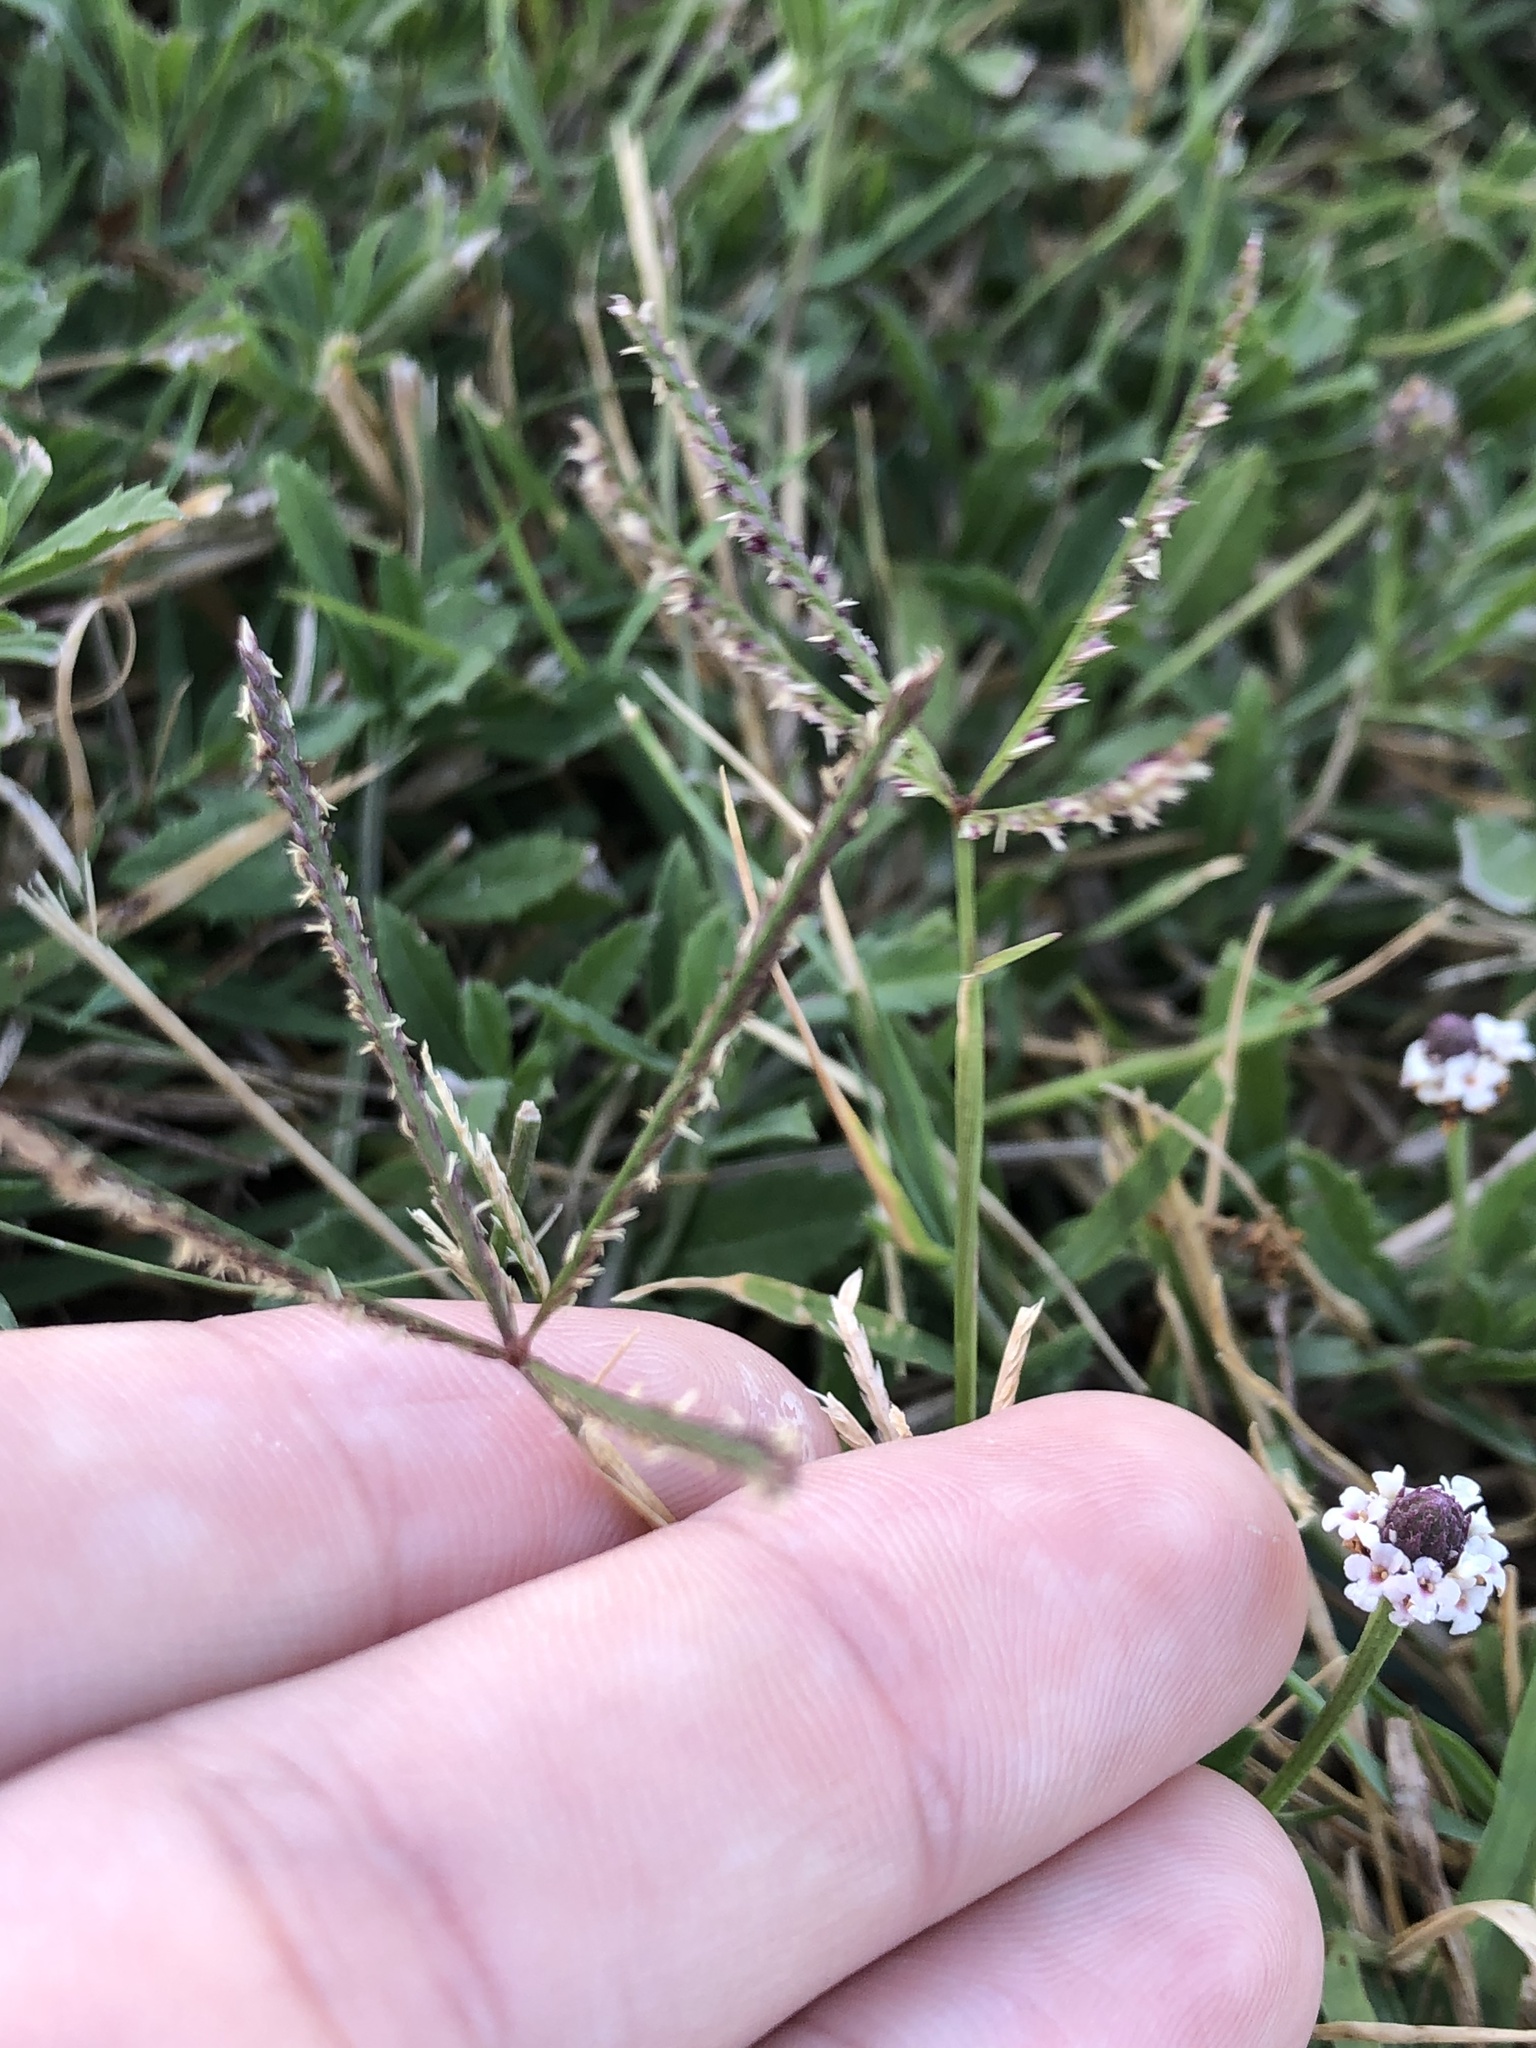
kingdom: Plantae
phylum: Tracheophyta
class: Liliopsida
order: Poales
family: Poaceae
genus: Cynodon
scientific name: Cynodon dactylon
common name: Bermuda grass
